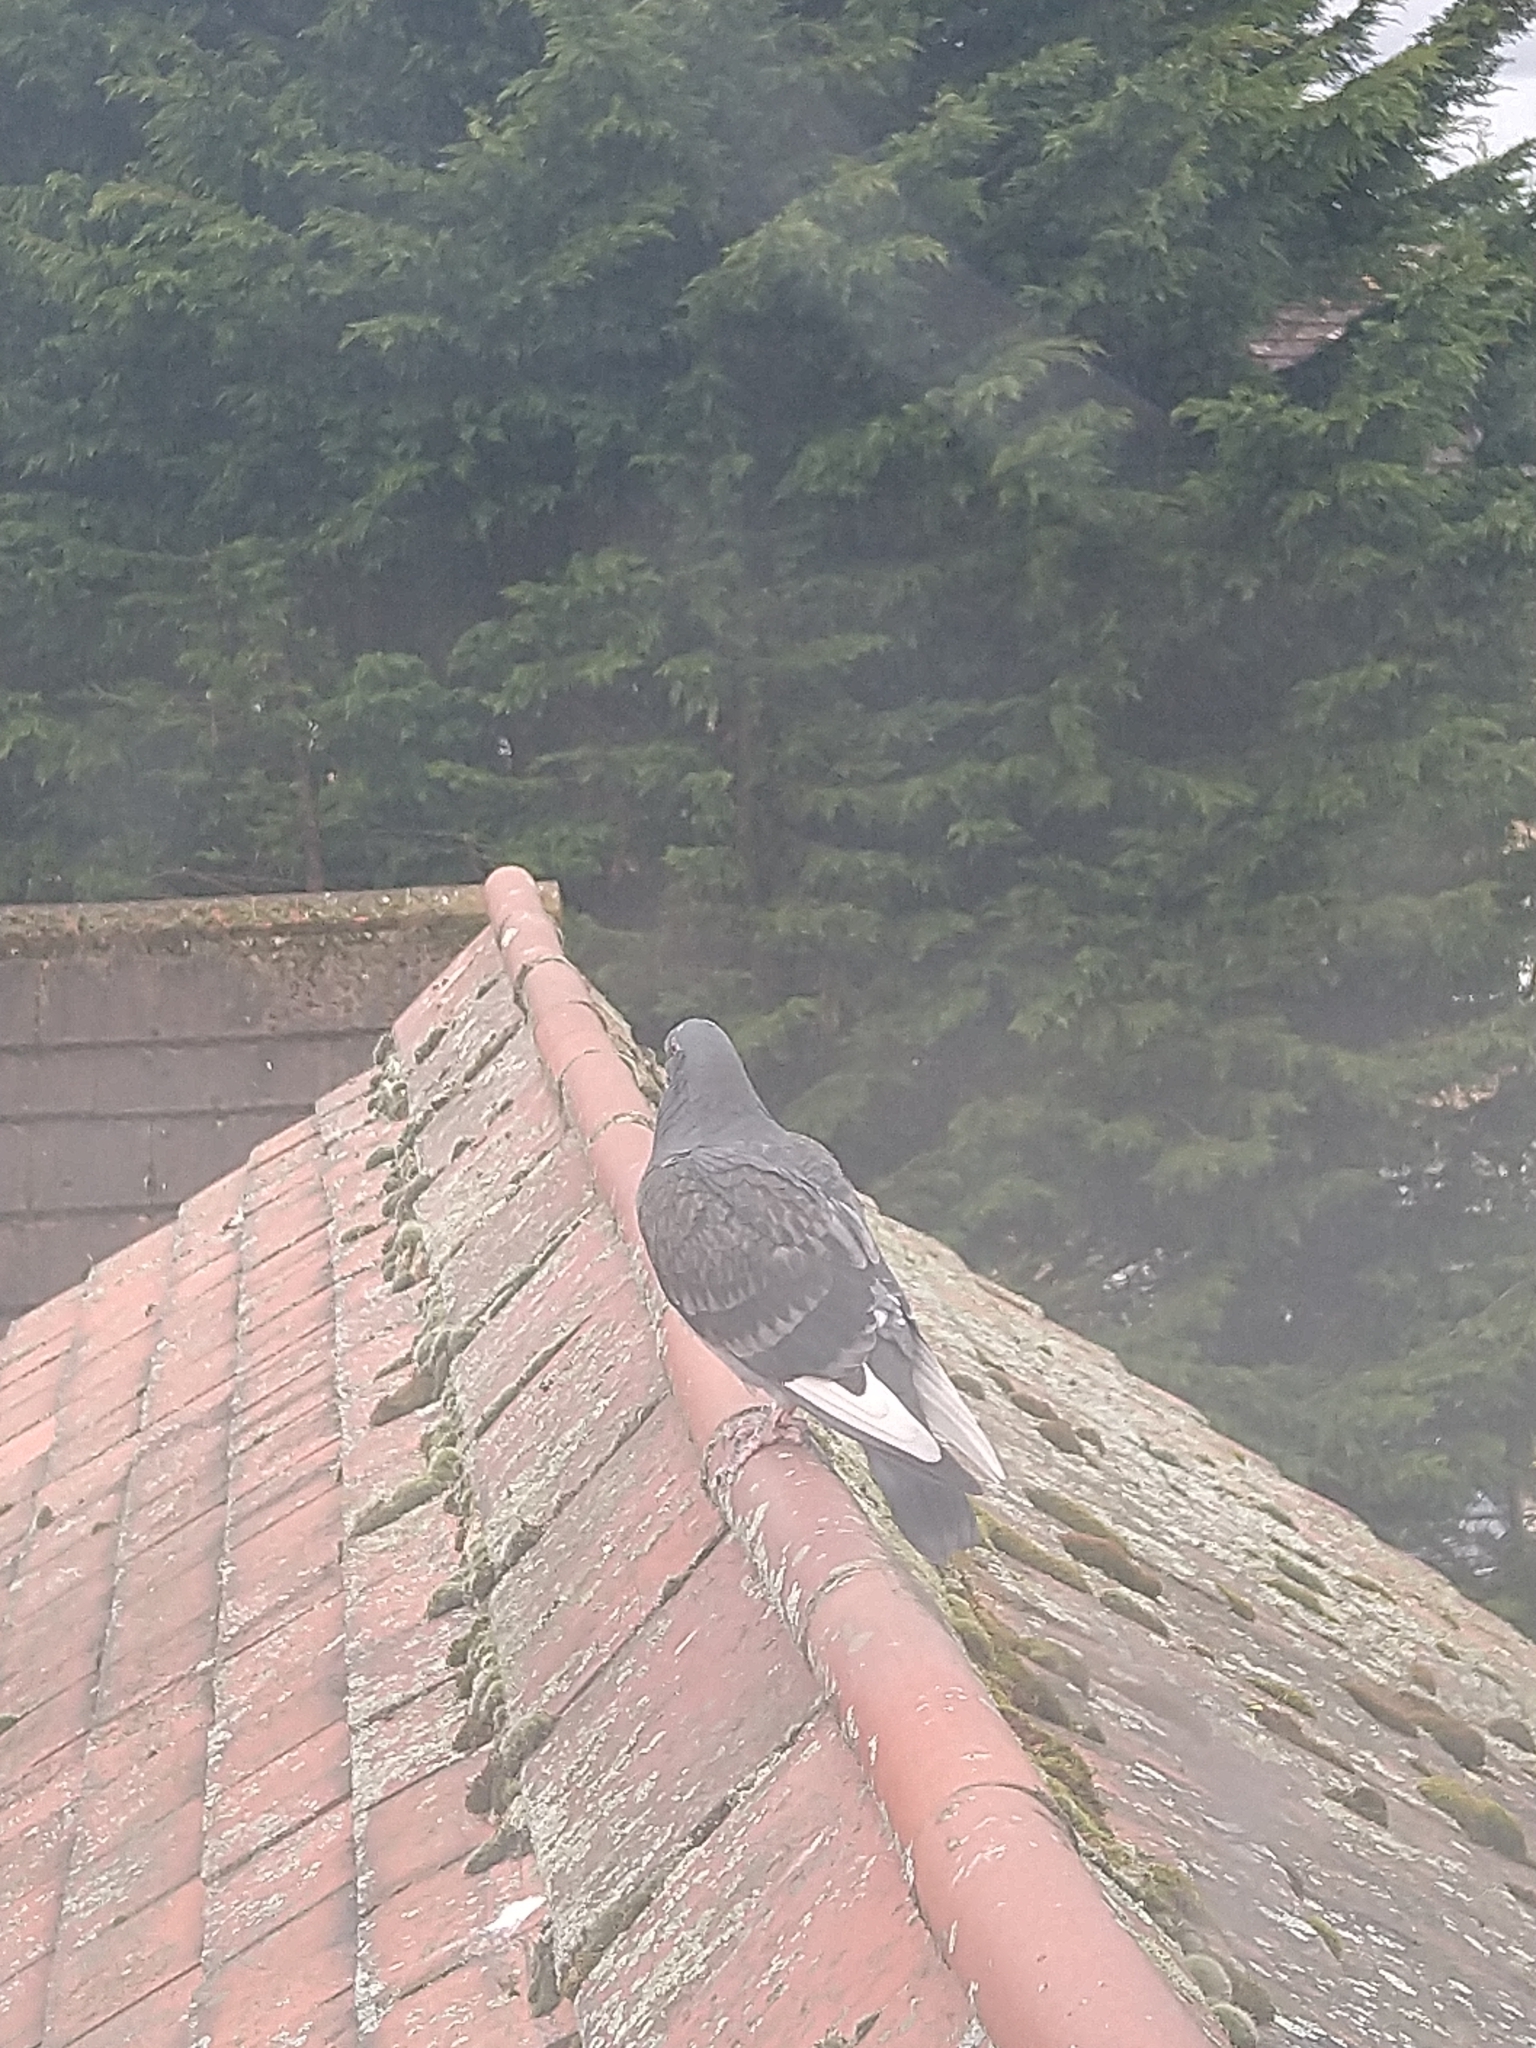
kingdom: Animalia
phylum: Chordata
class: Aves
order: Columbiformes
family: Columbidae
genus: Columba
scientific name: Columba livia
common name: Rock pigeon
